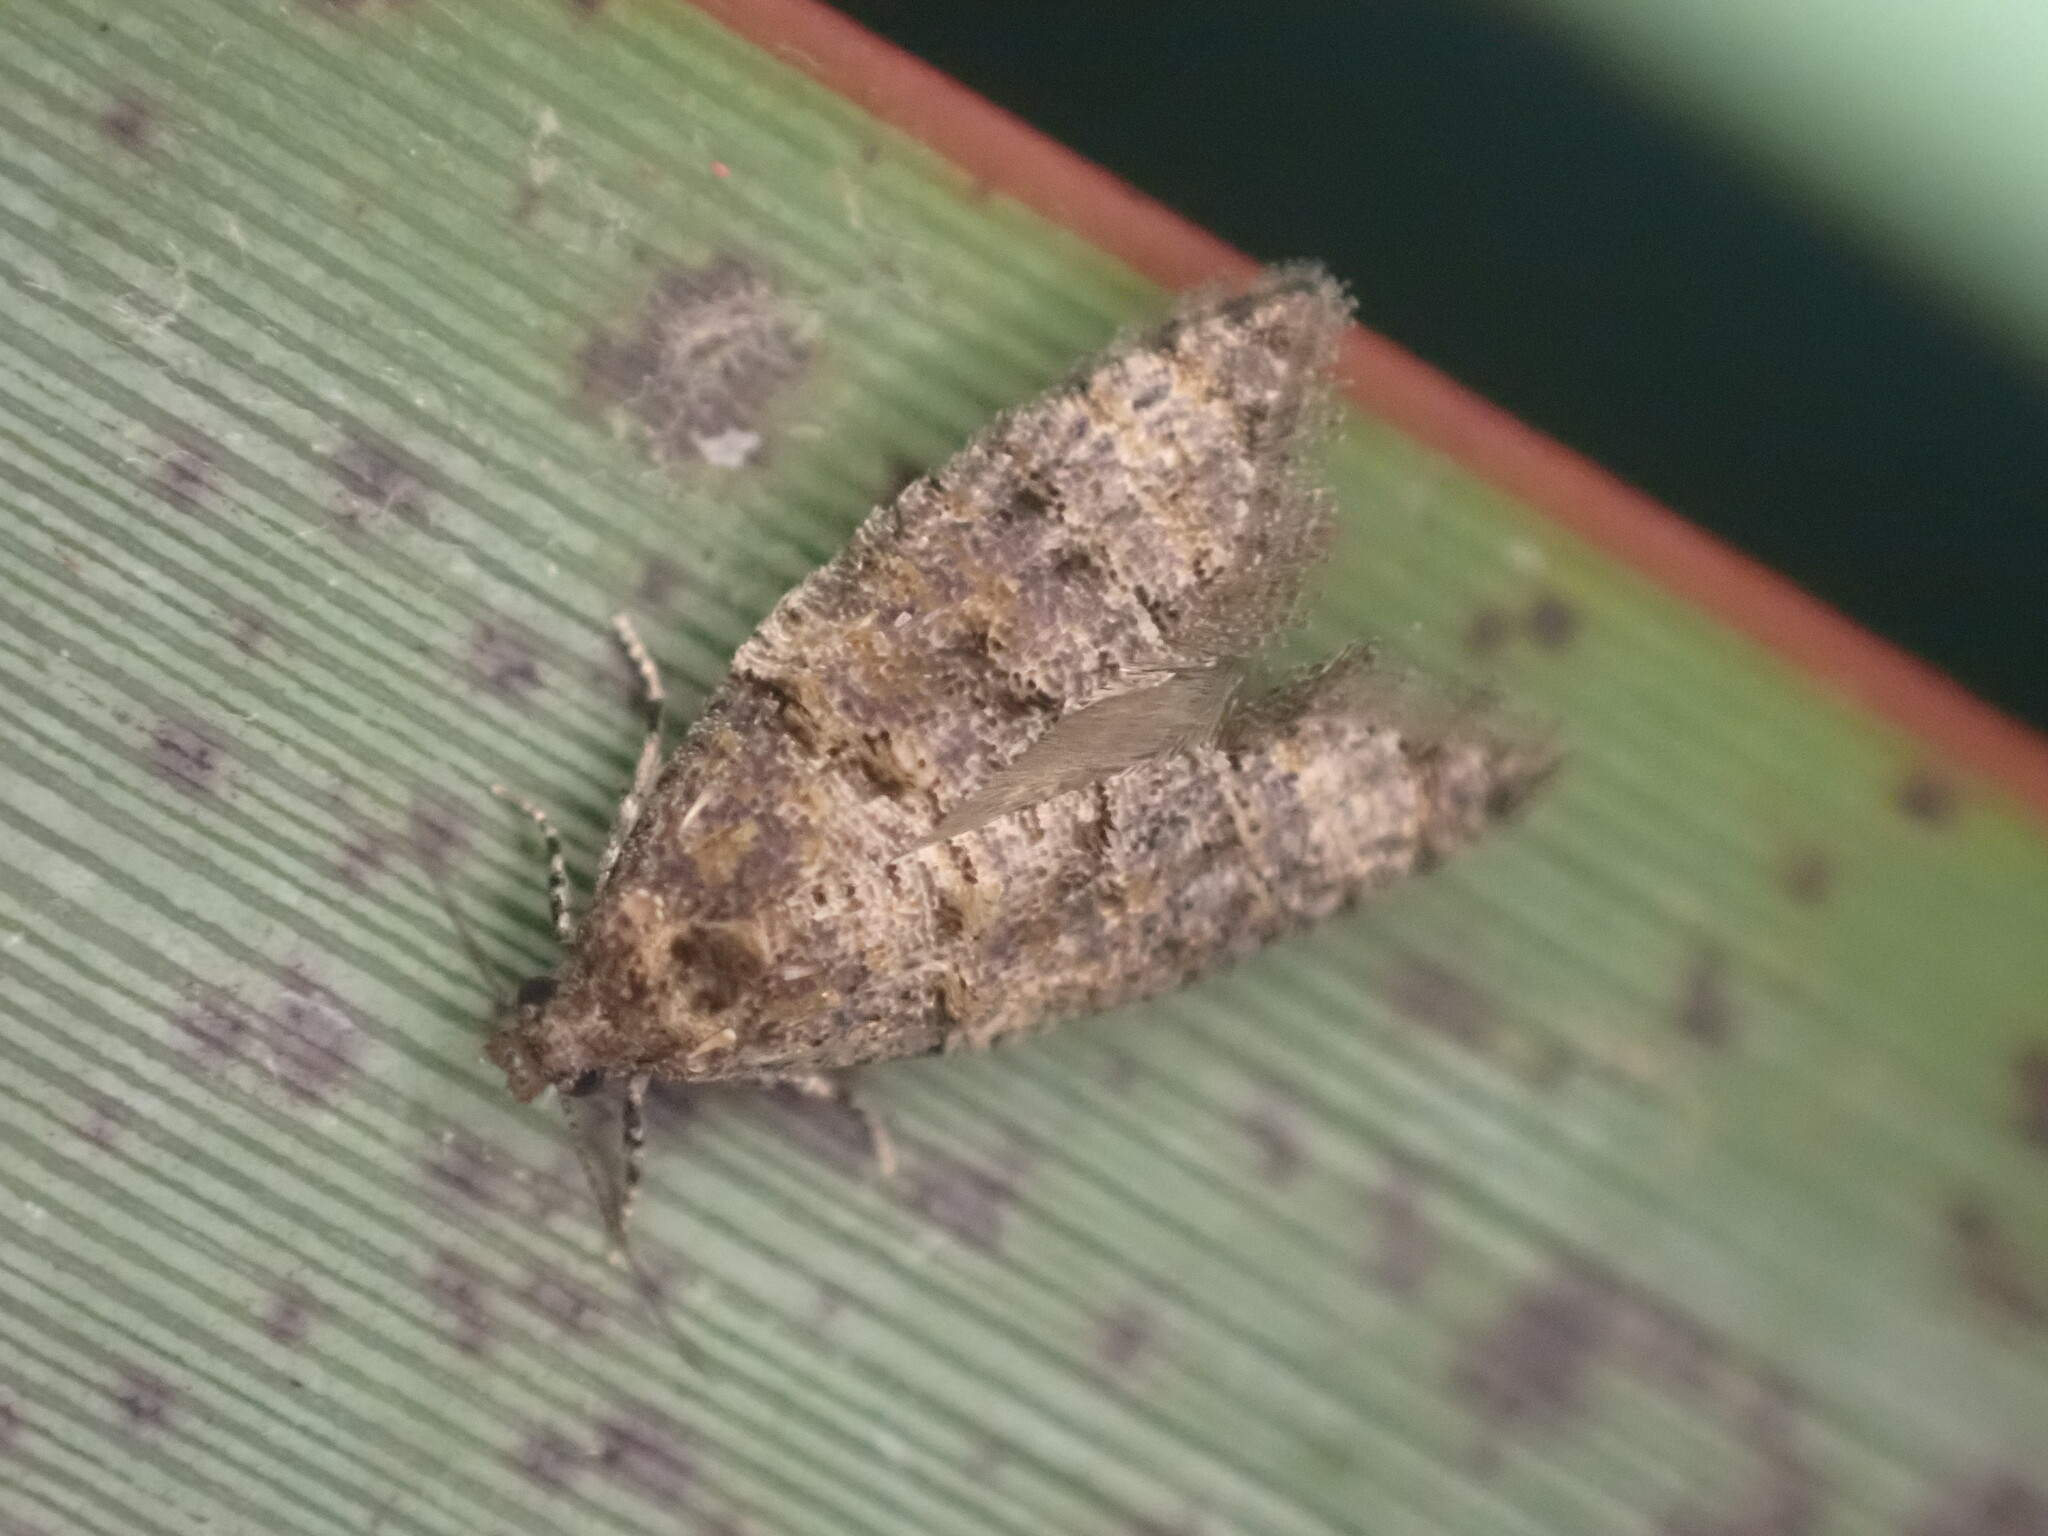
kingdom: Animalia
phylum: Arthropoda
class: Insecta
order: Lepidoptera
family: Tortricidae
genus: Lopharcha
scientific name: Lopharcha insolita
